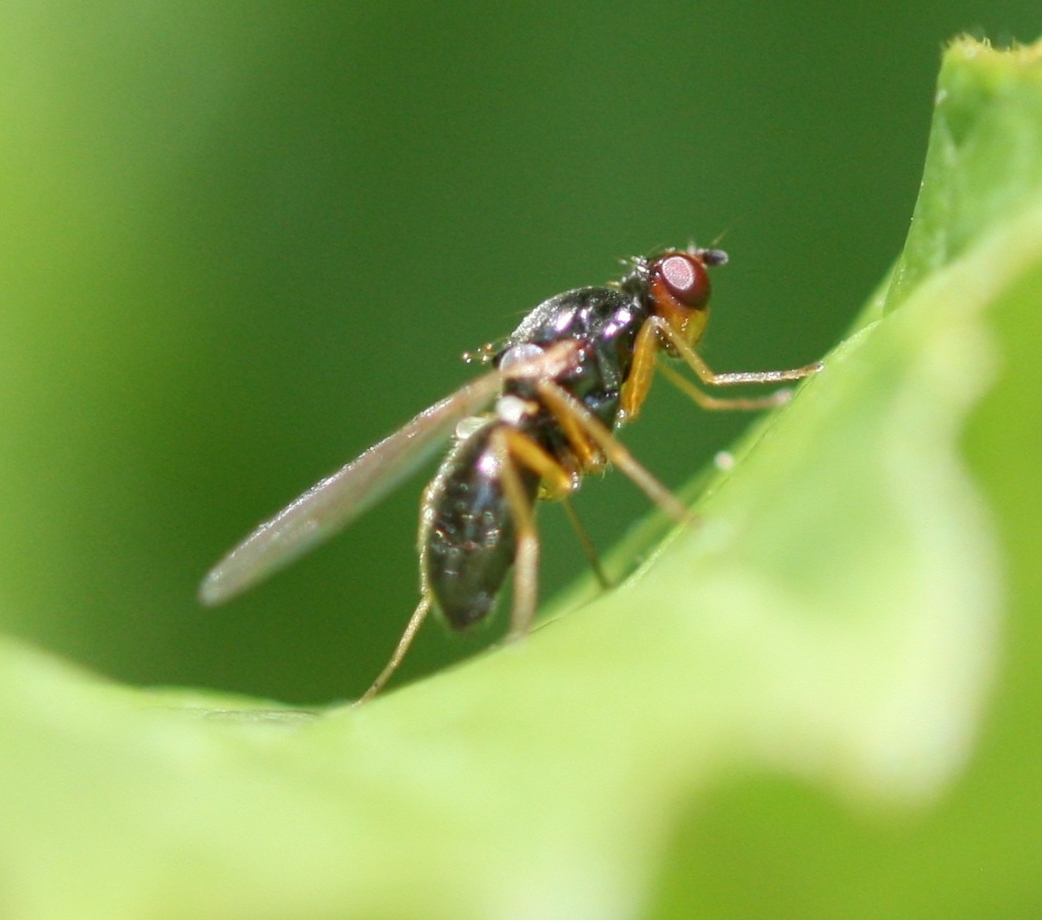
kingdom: Animalia
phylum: Arthropoda
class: Insecta
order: Diptera
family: Psilidae
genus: Chamaepsila
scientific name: Chamaepsila
